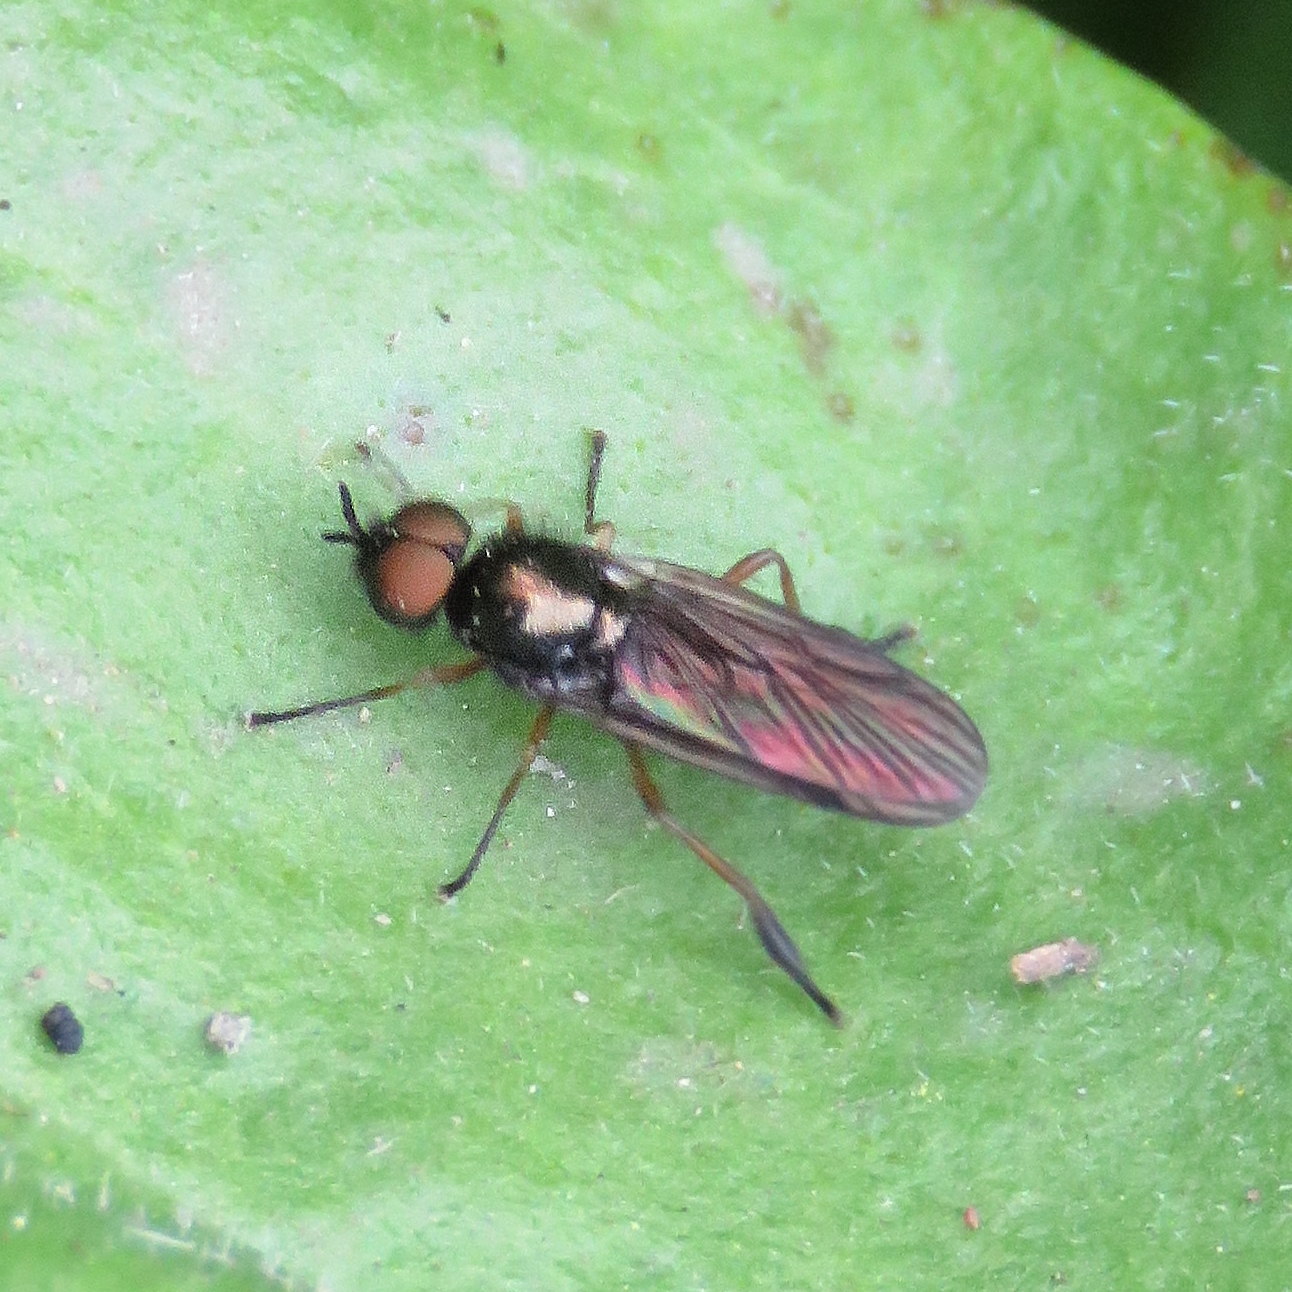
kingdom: Animalia
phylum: Arthropoda
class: Insecta
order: Diptera
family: Stratiomyidae
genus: Beris
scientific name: Beris chalybata
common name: Murky-legged black legionnaire
